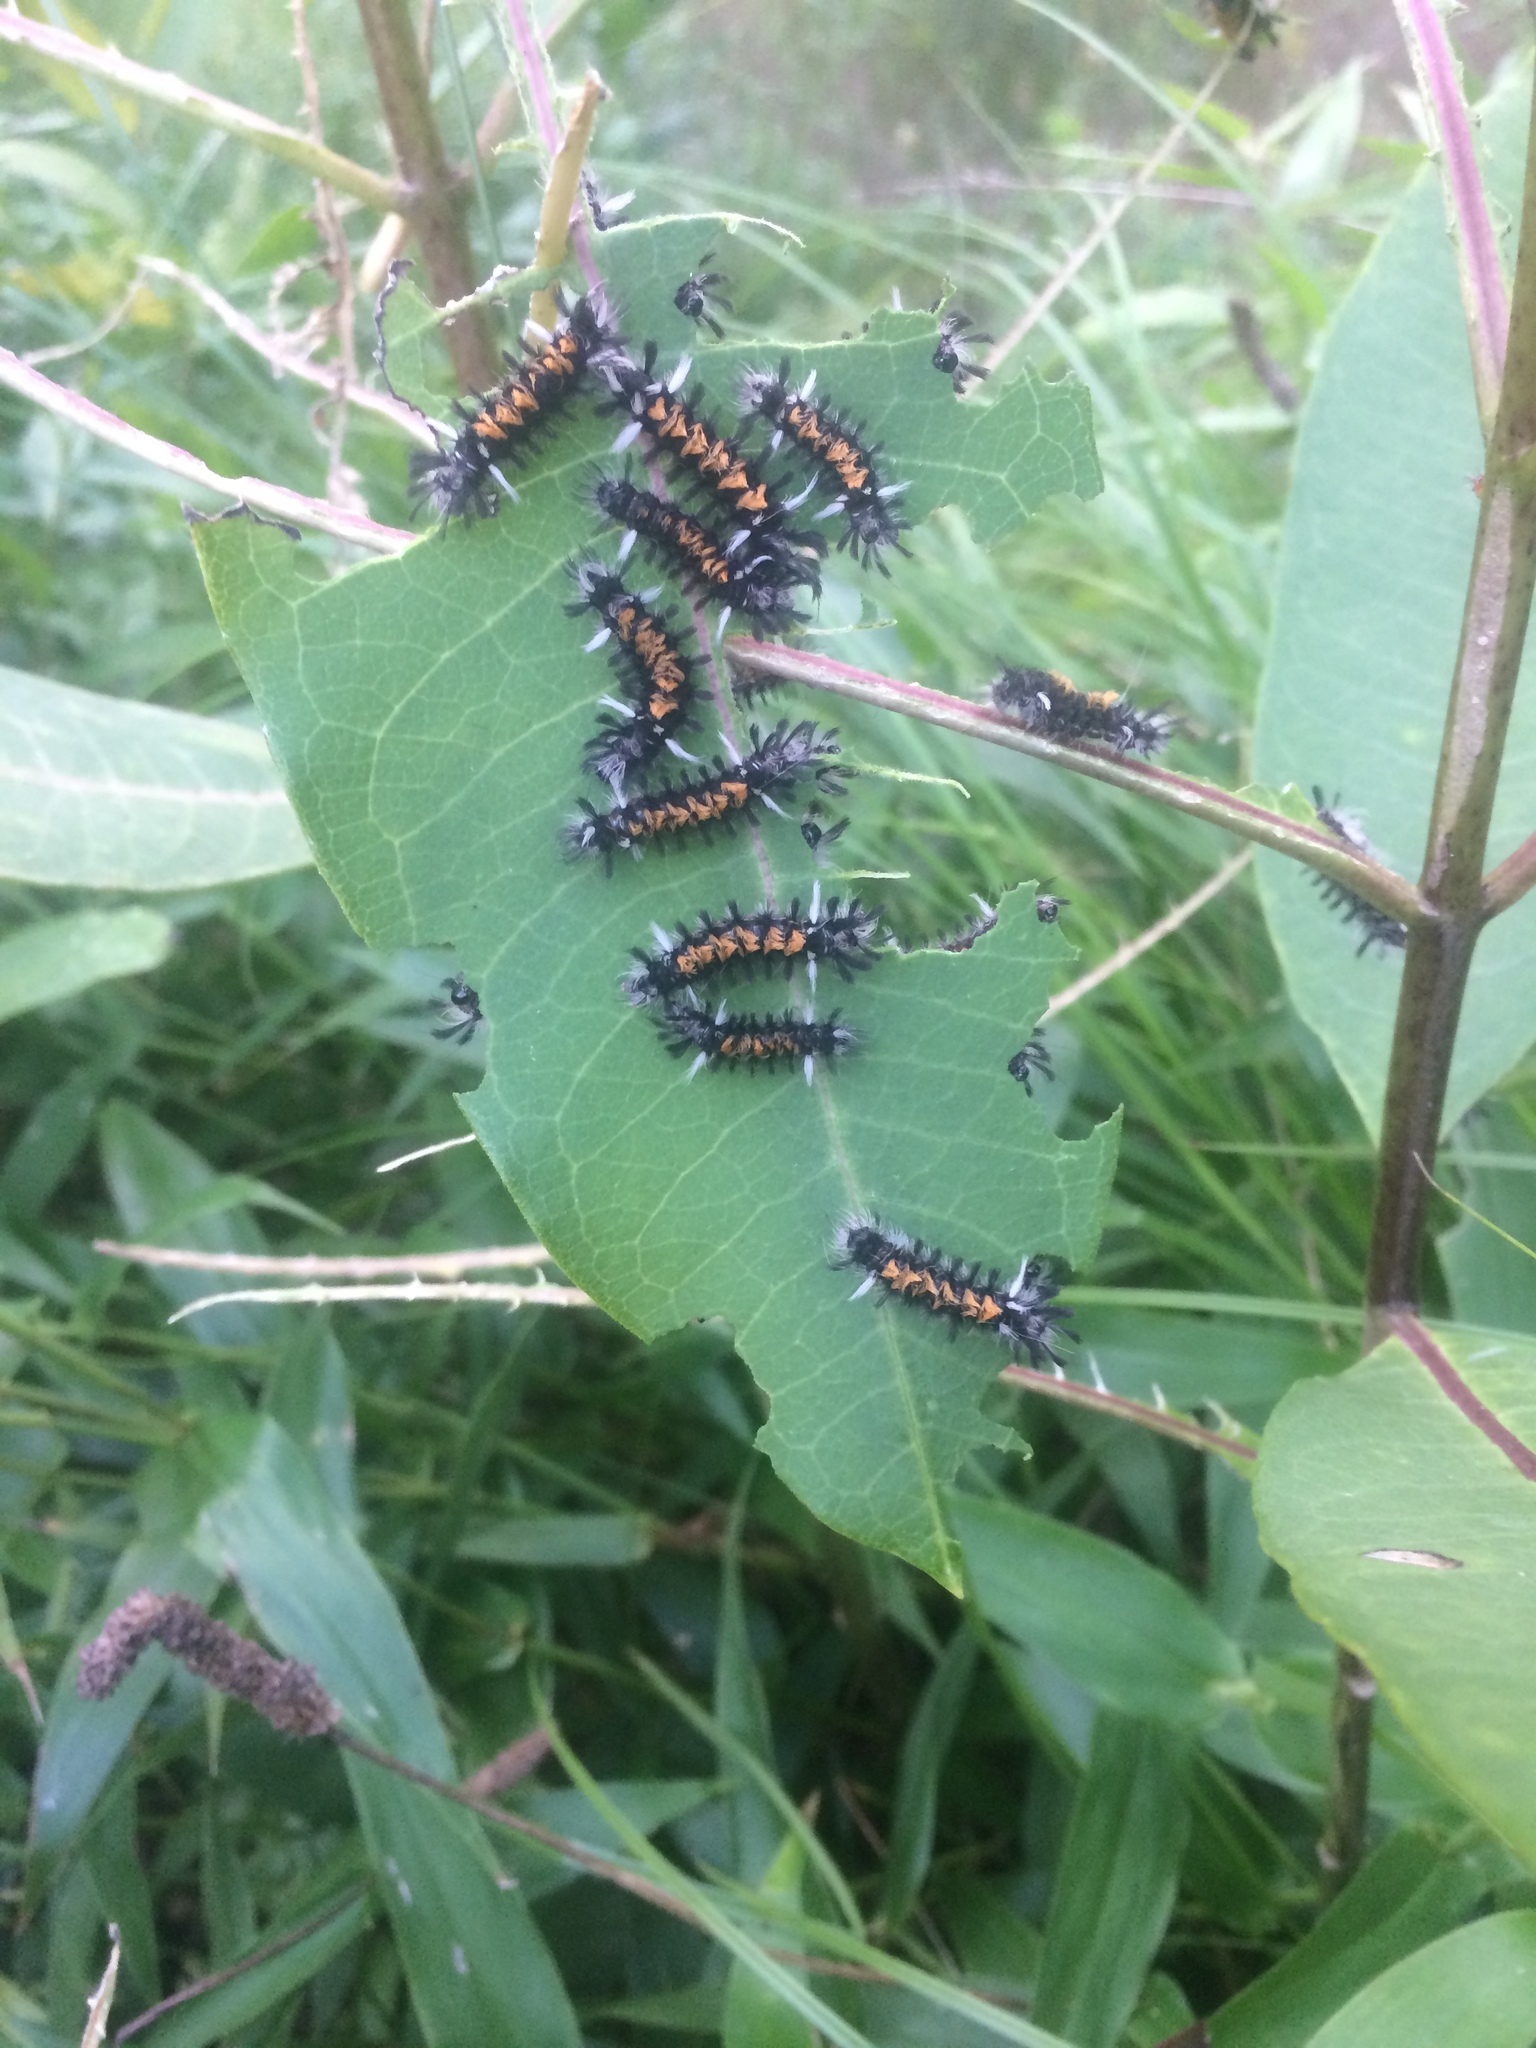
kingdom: Animalia
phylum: Arthropoda
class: Insecta
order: Lepidoptera
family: Erebidae
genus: Euchaetes
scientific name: Euchaetes egle
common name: Milkweed tussock moth
